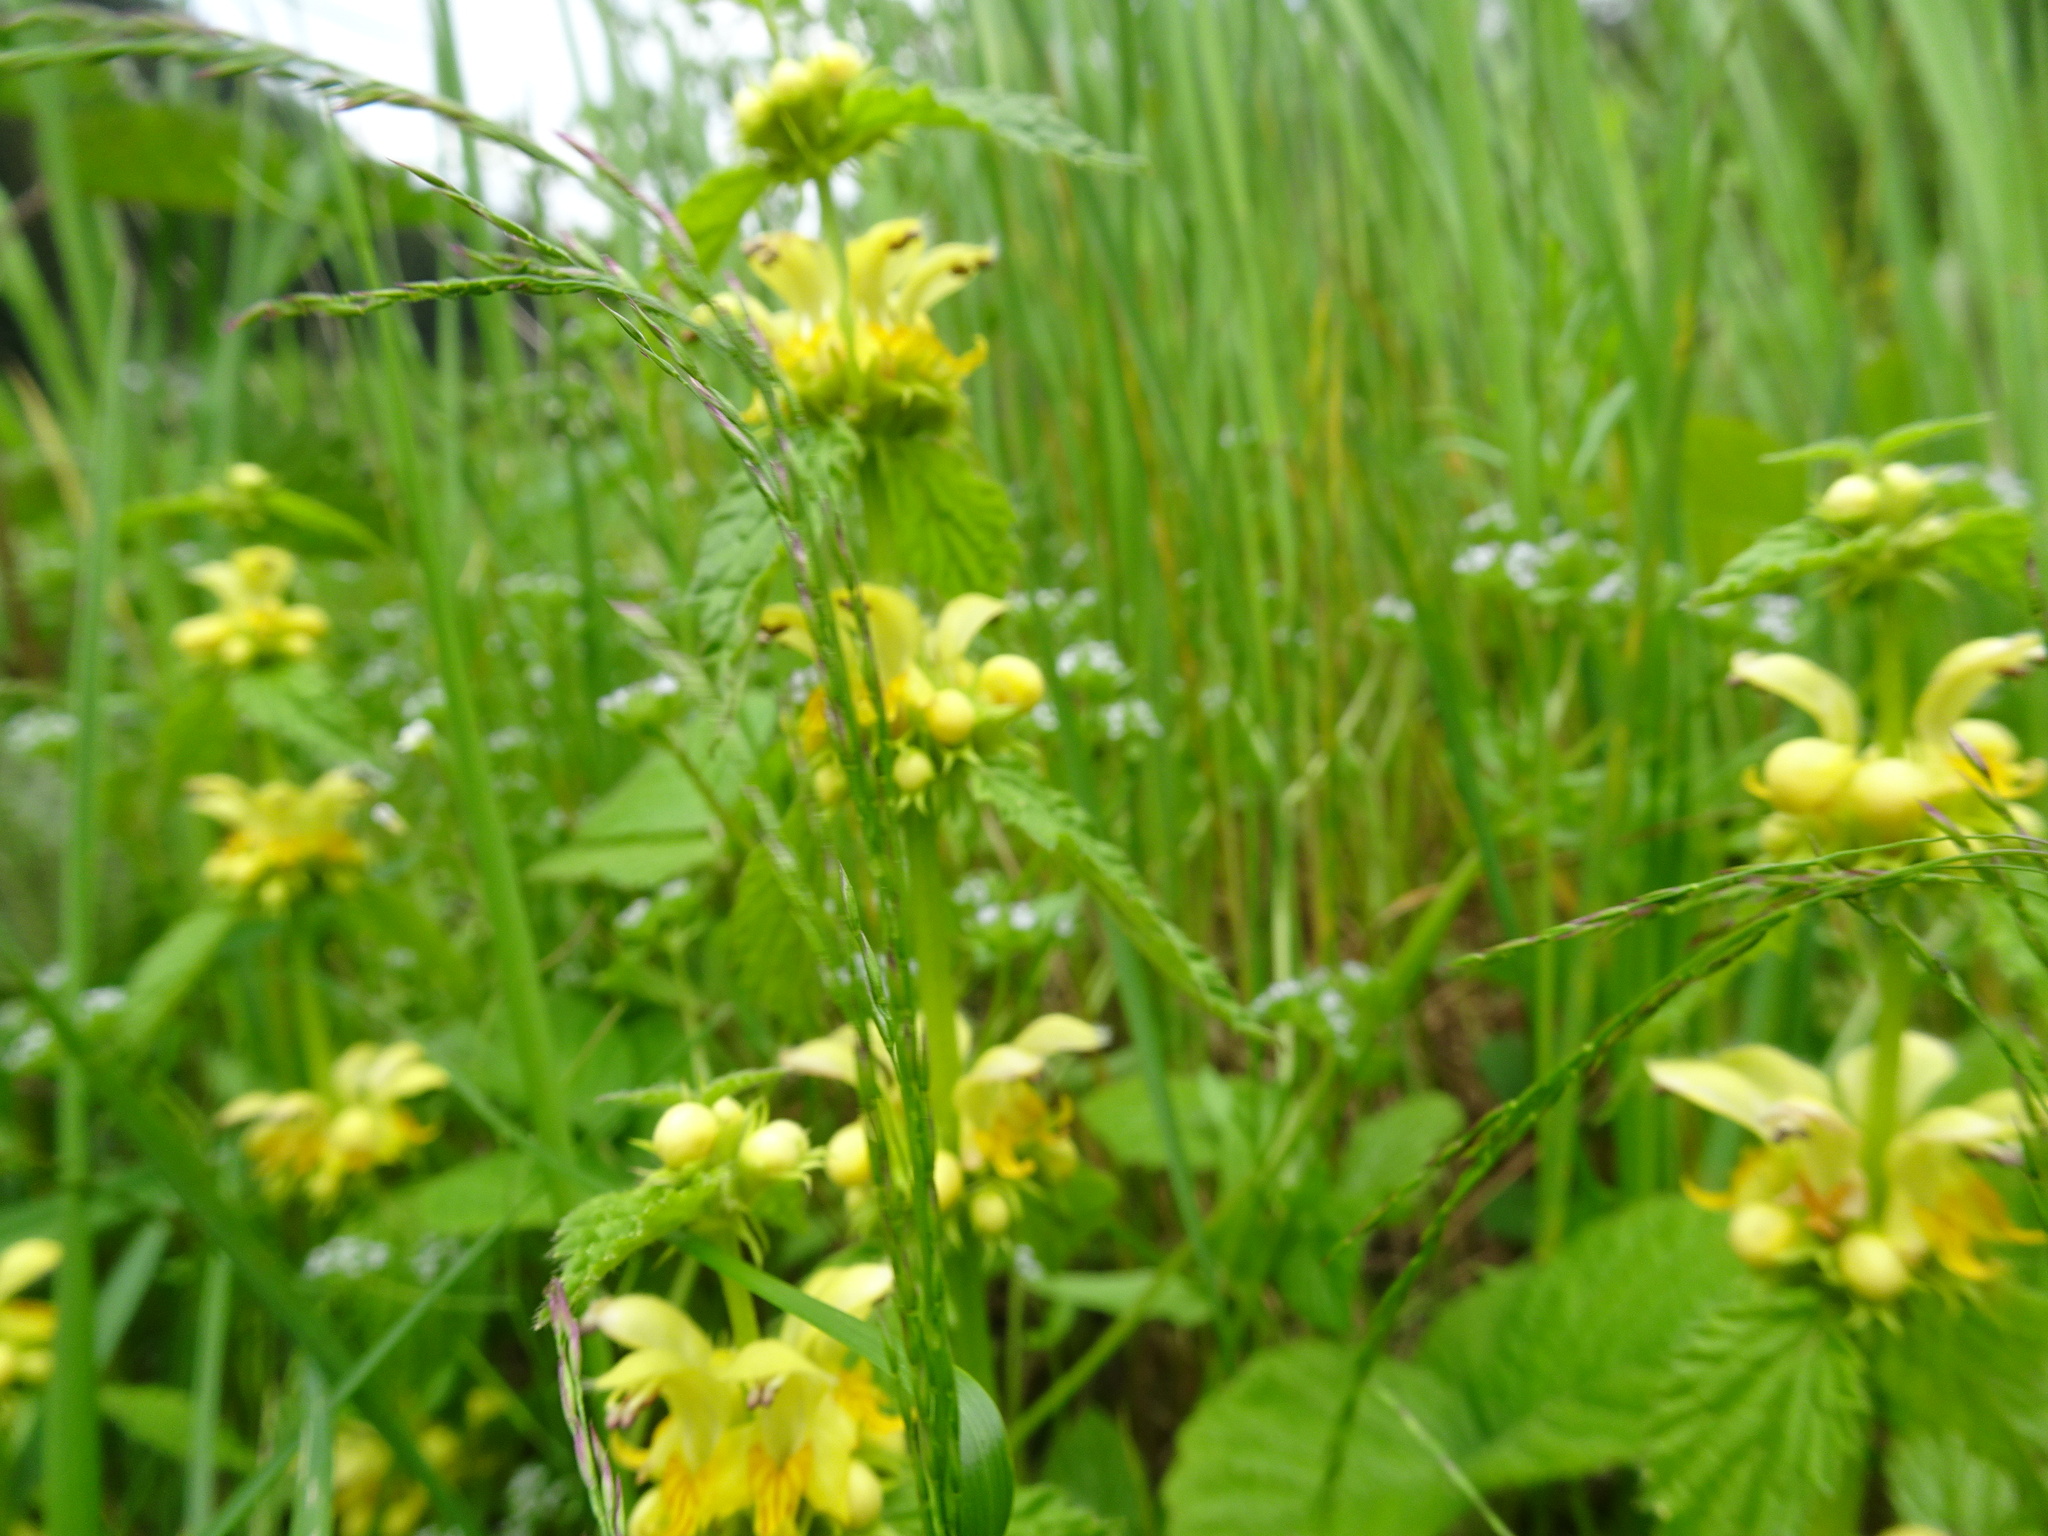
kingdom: Plantae
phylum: Tracheophyta
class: Magnoliopsida
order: Lamiales
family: Lamiaceae
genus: Lamium
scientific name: Lamium galeobdolon
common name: Yellow archangel
